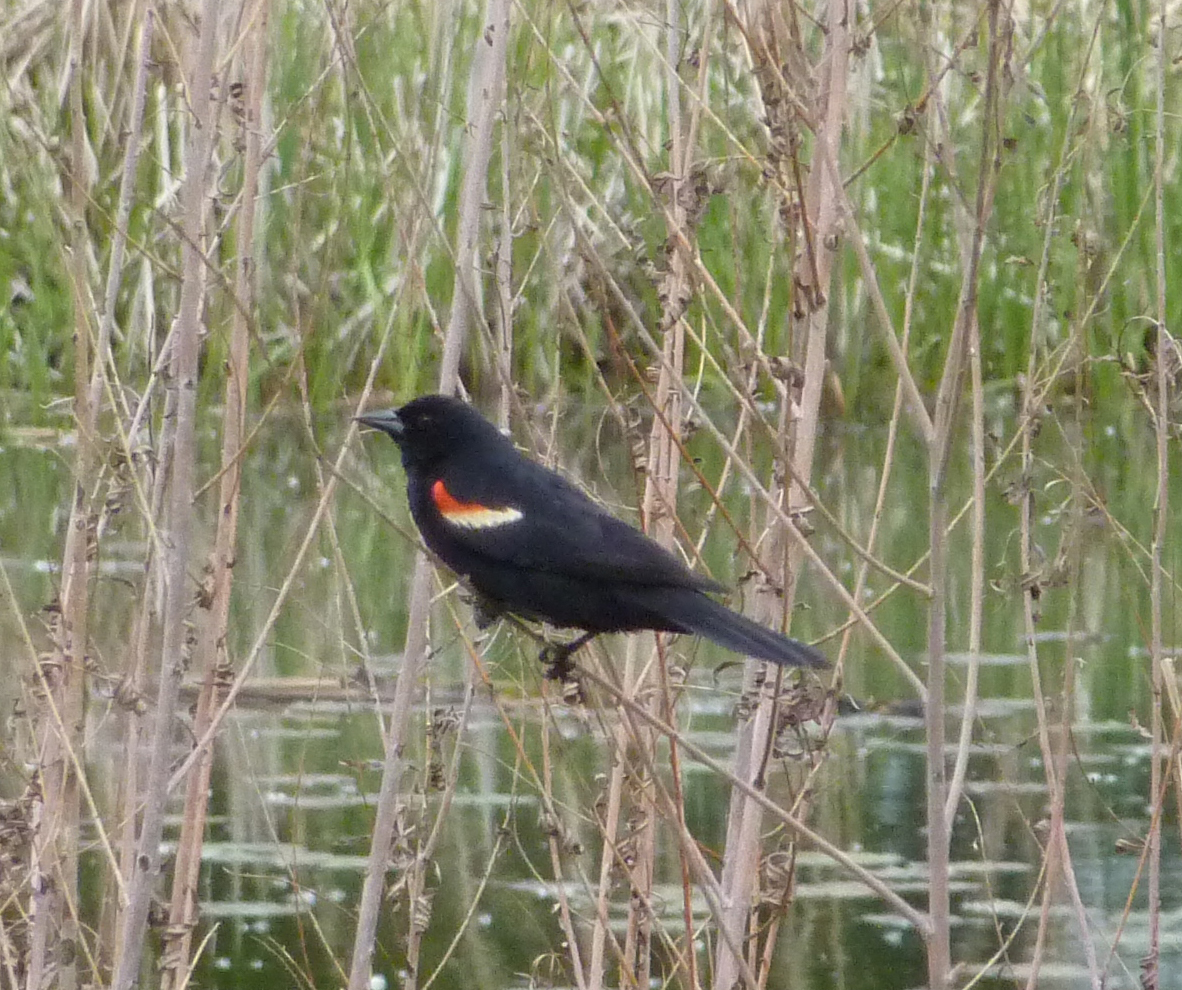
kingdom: Animalia
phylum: Chordata
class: Aves
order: Passeriformes
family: Icteridae
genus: Agelaius
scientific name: Agelaius phoeniceus
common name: Red-winged blackbird
